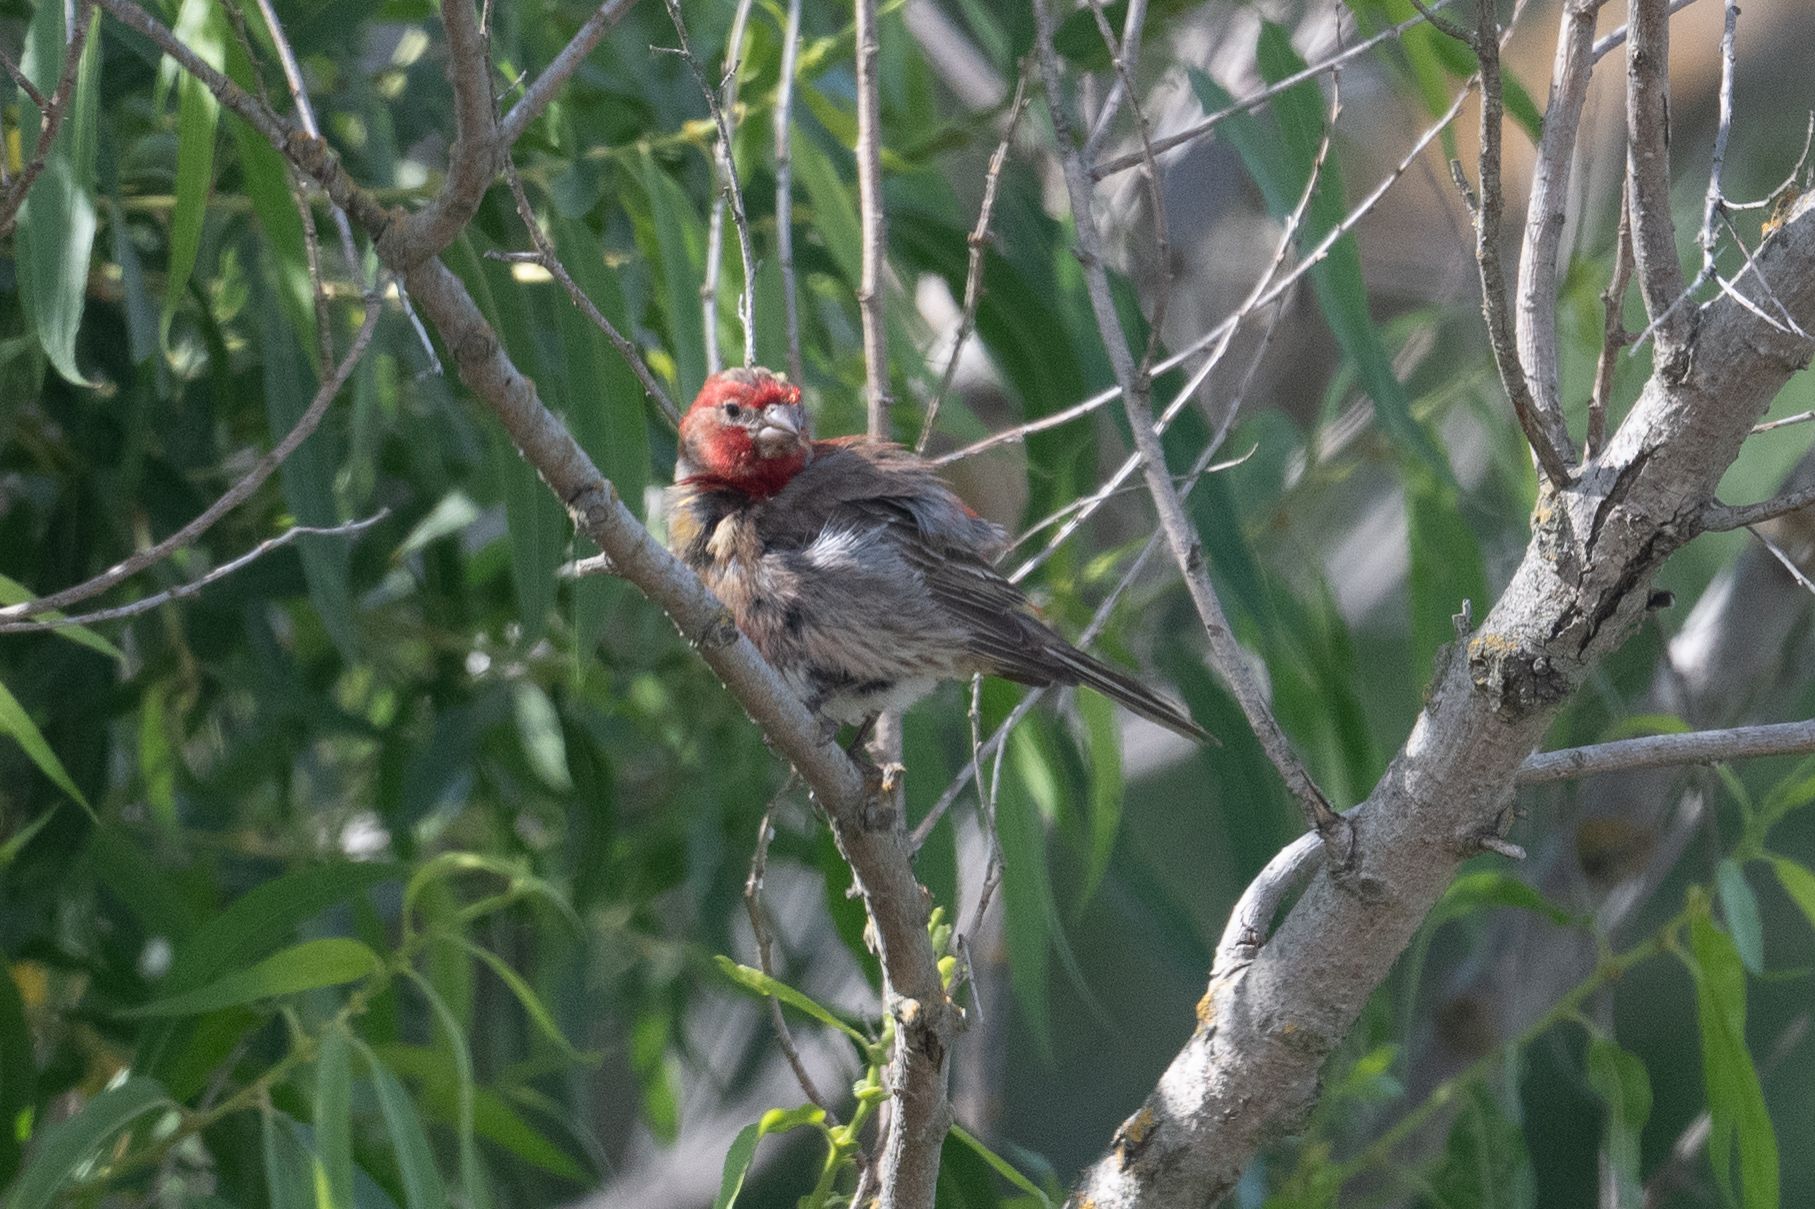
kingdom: Animalia
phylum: Chordata
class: Aves
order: Passeriformes
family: Fringillidae
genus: Haemorhous
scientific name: Haemorhous mexicanus
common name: House finch
